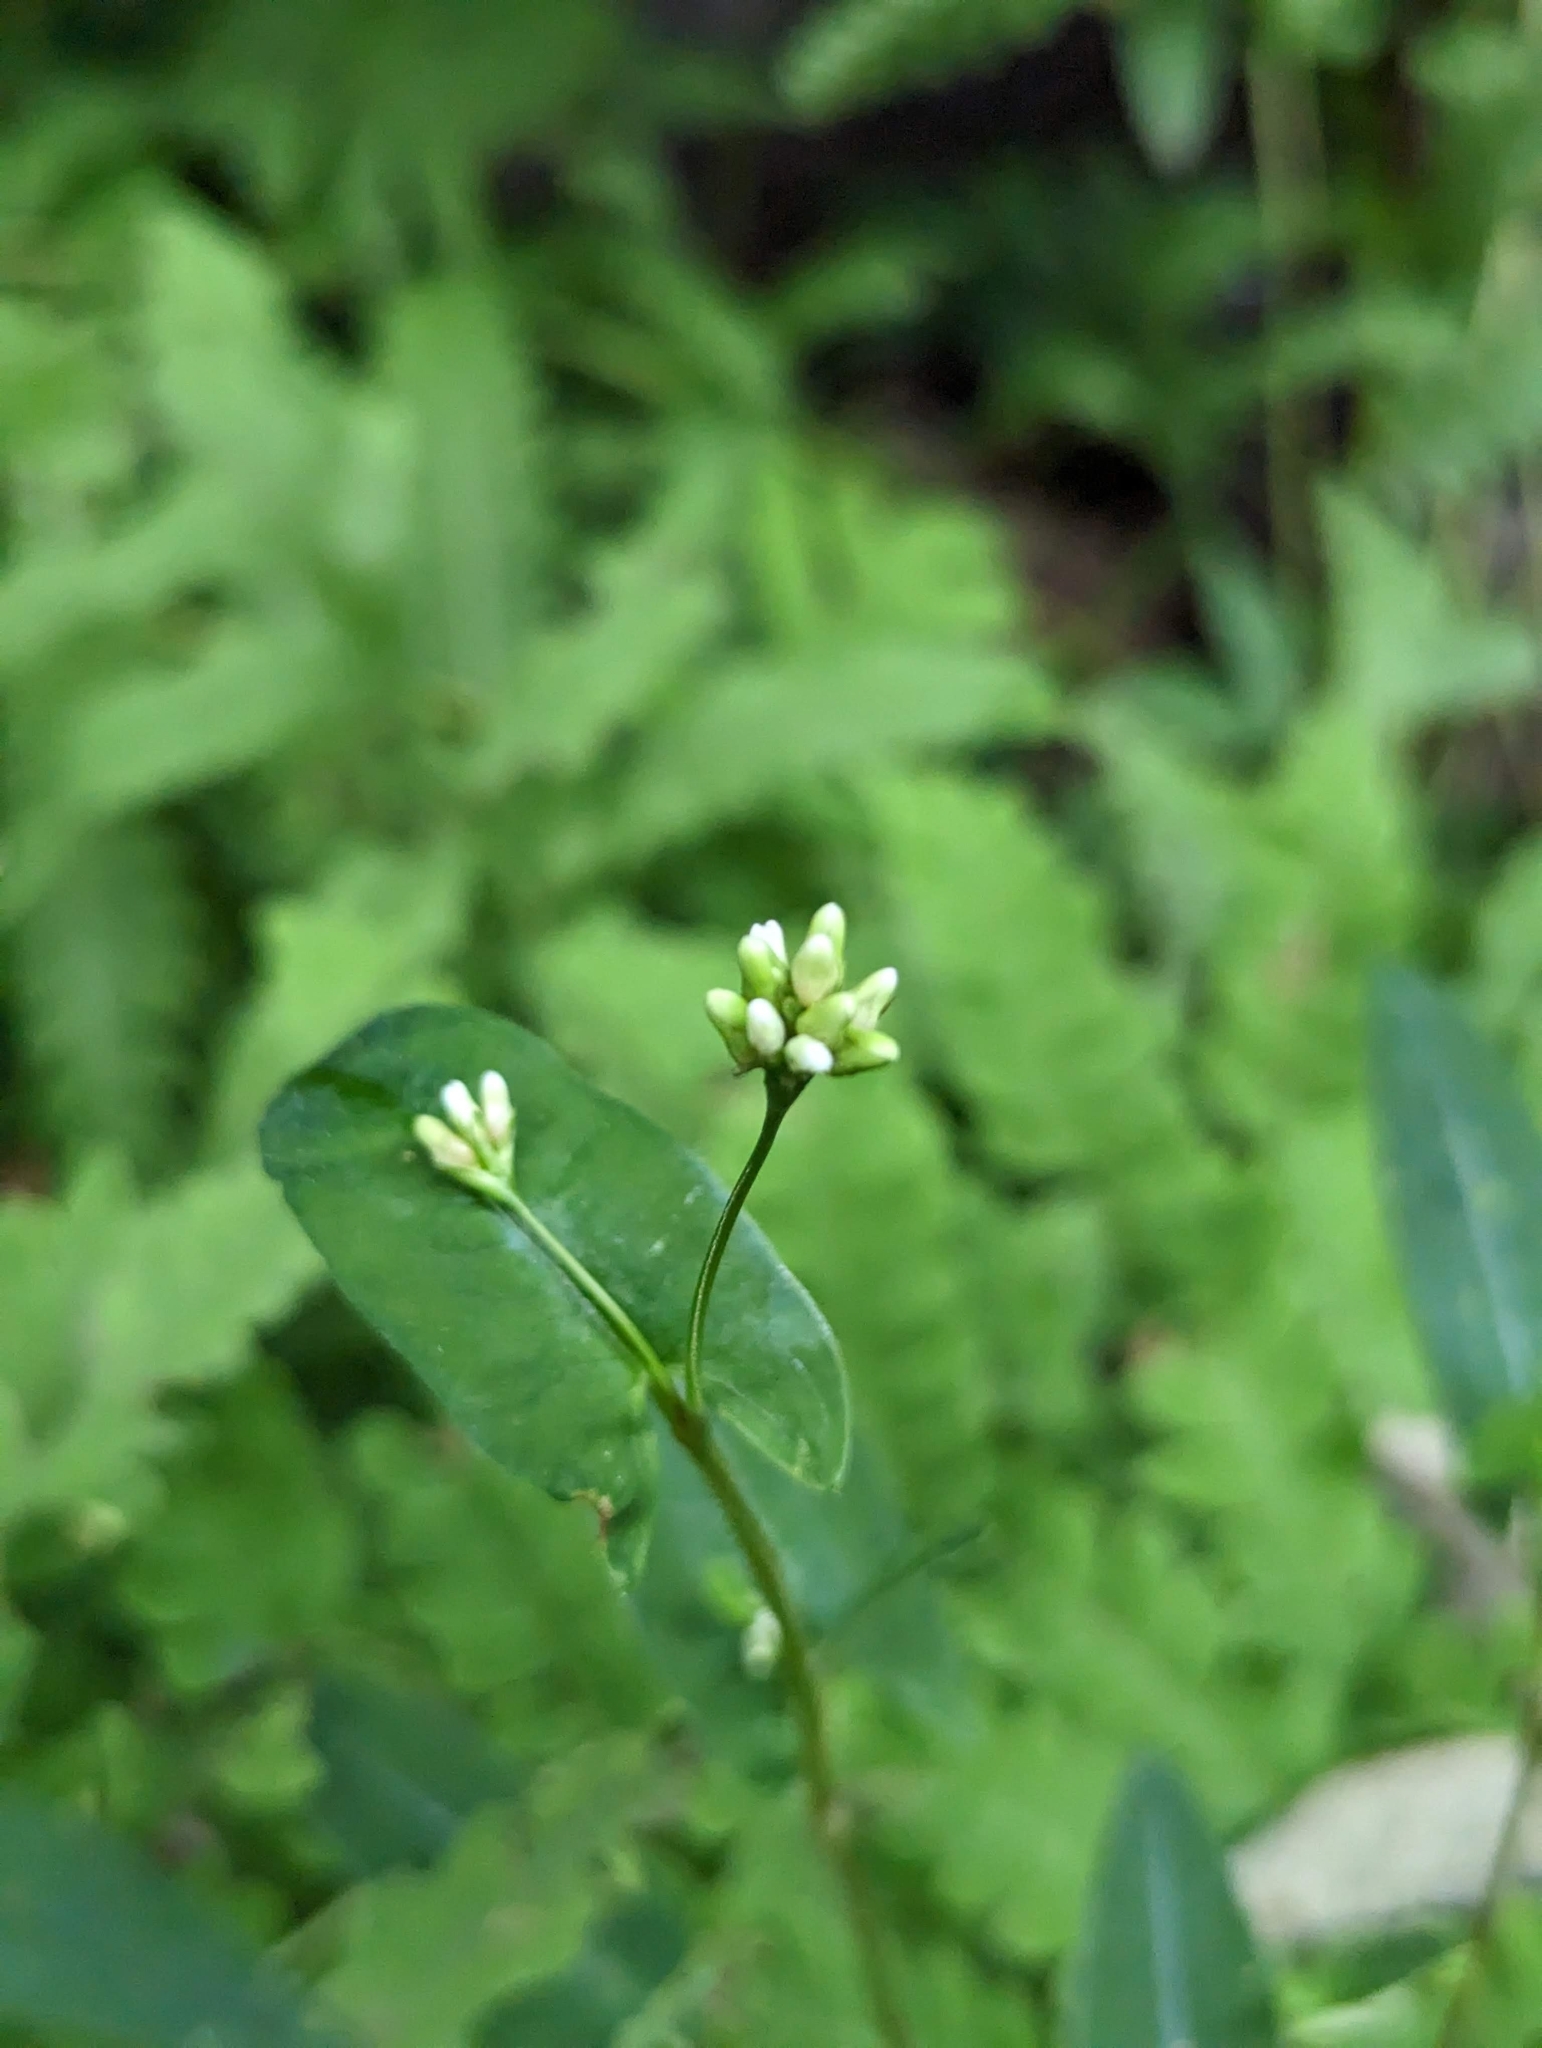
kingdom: Plantae
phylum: Tracheophyta
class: Magnoliopsida
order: Caryophyllales
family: Polygonaceae
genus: Persicaria
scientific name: Persicaria sagittata
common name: American tearthumb
